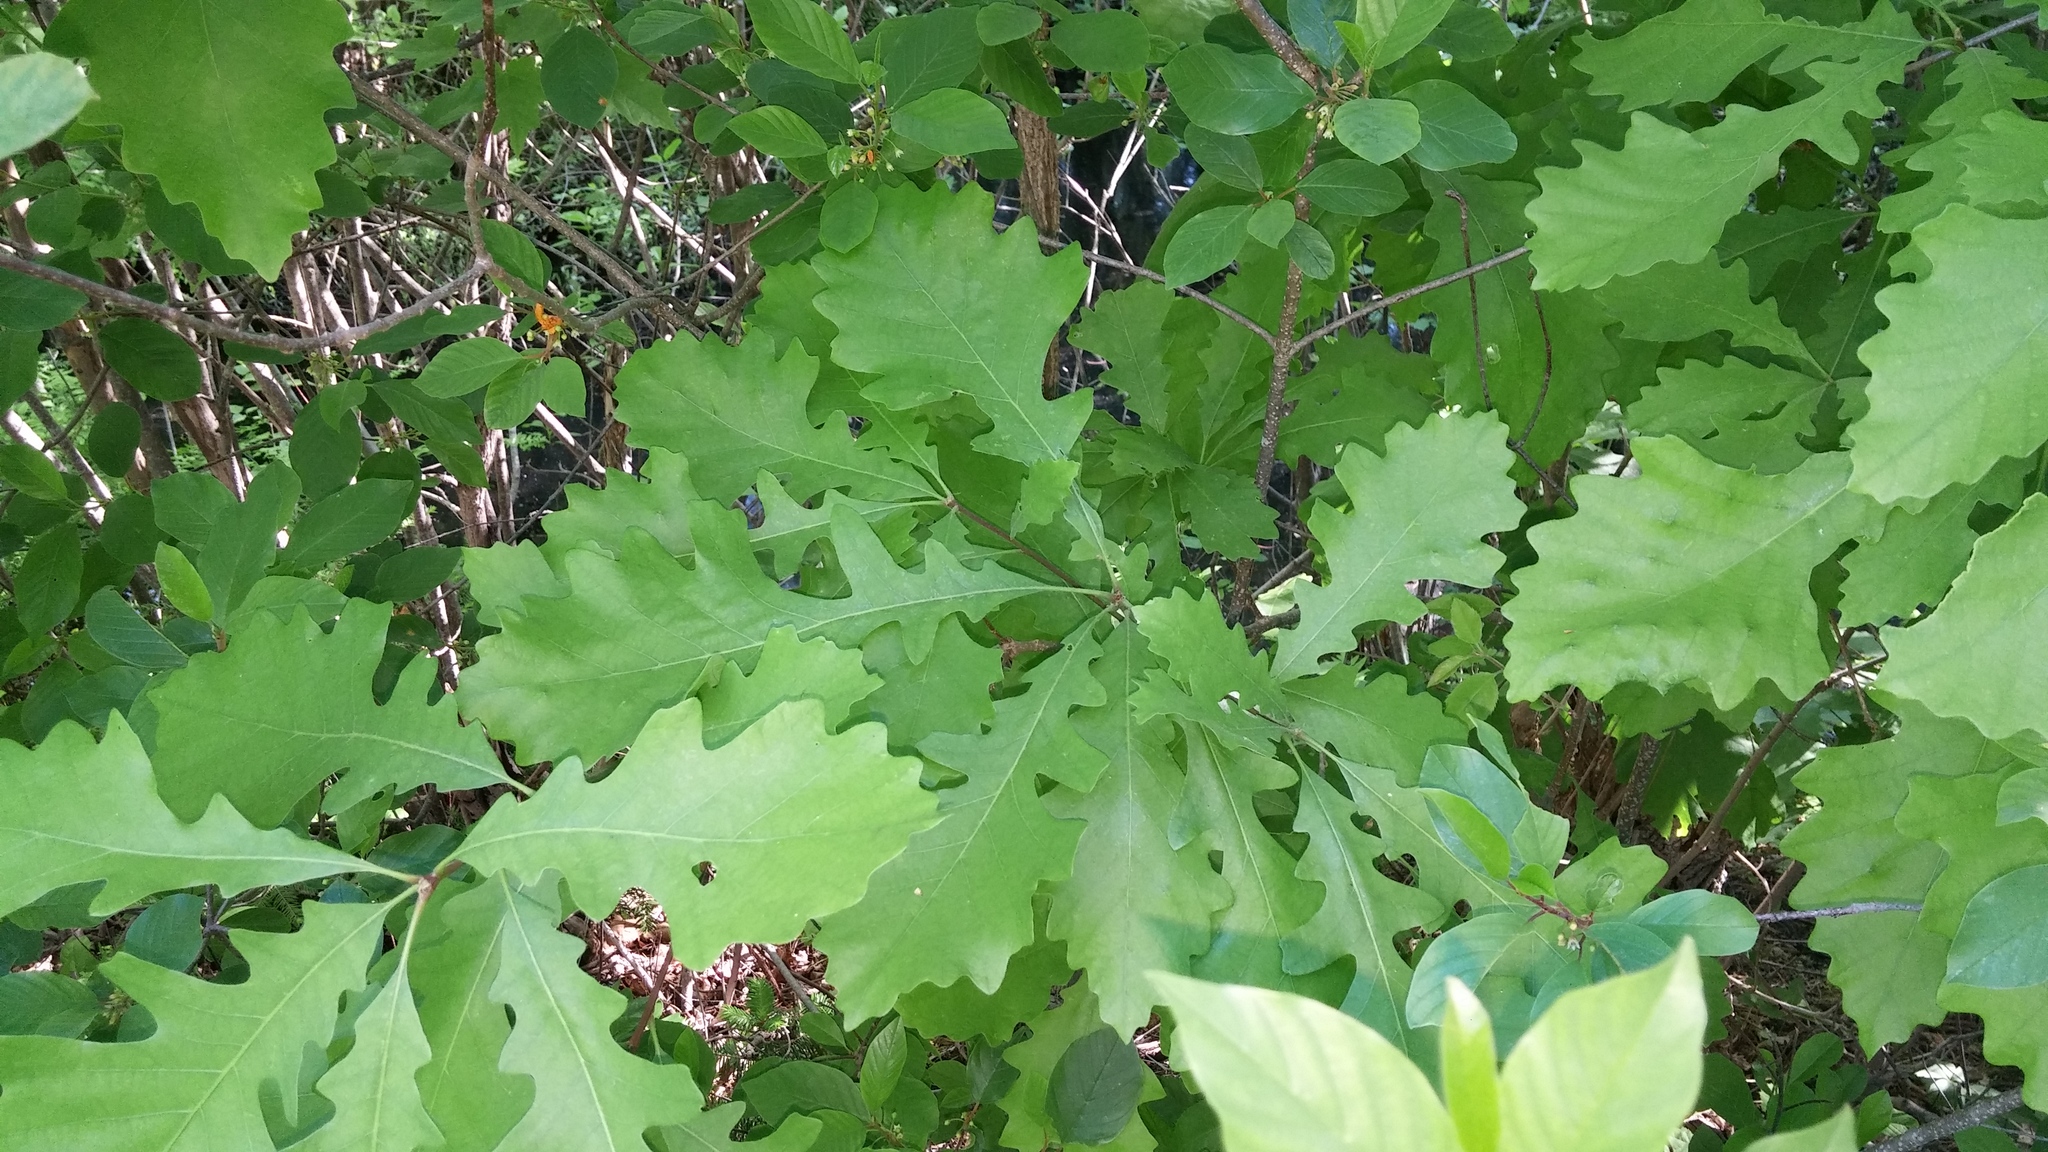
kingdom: Plantae
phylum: Tracheophyta
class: Magnoliopsida
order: Fagales
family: Fagaceae
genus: Quercus
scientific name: Quercus macrocarpa
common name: Bur oak
